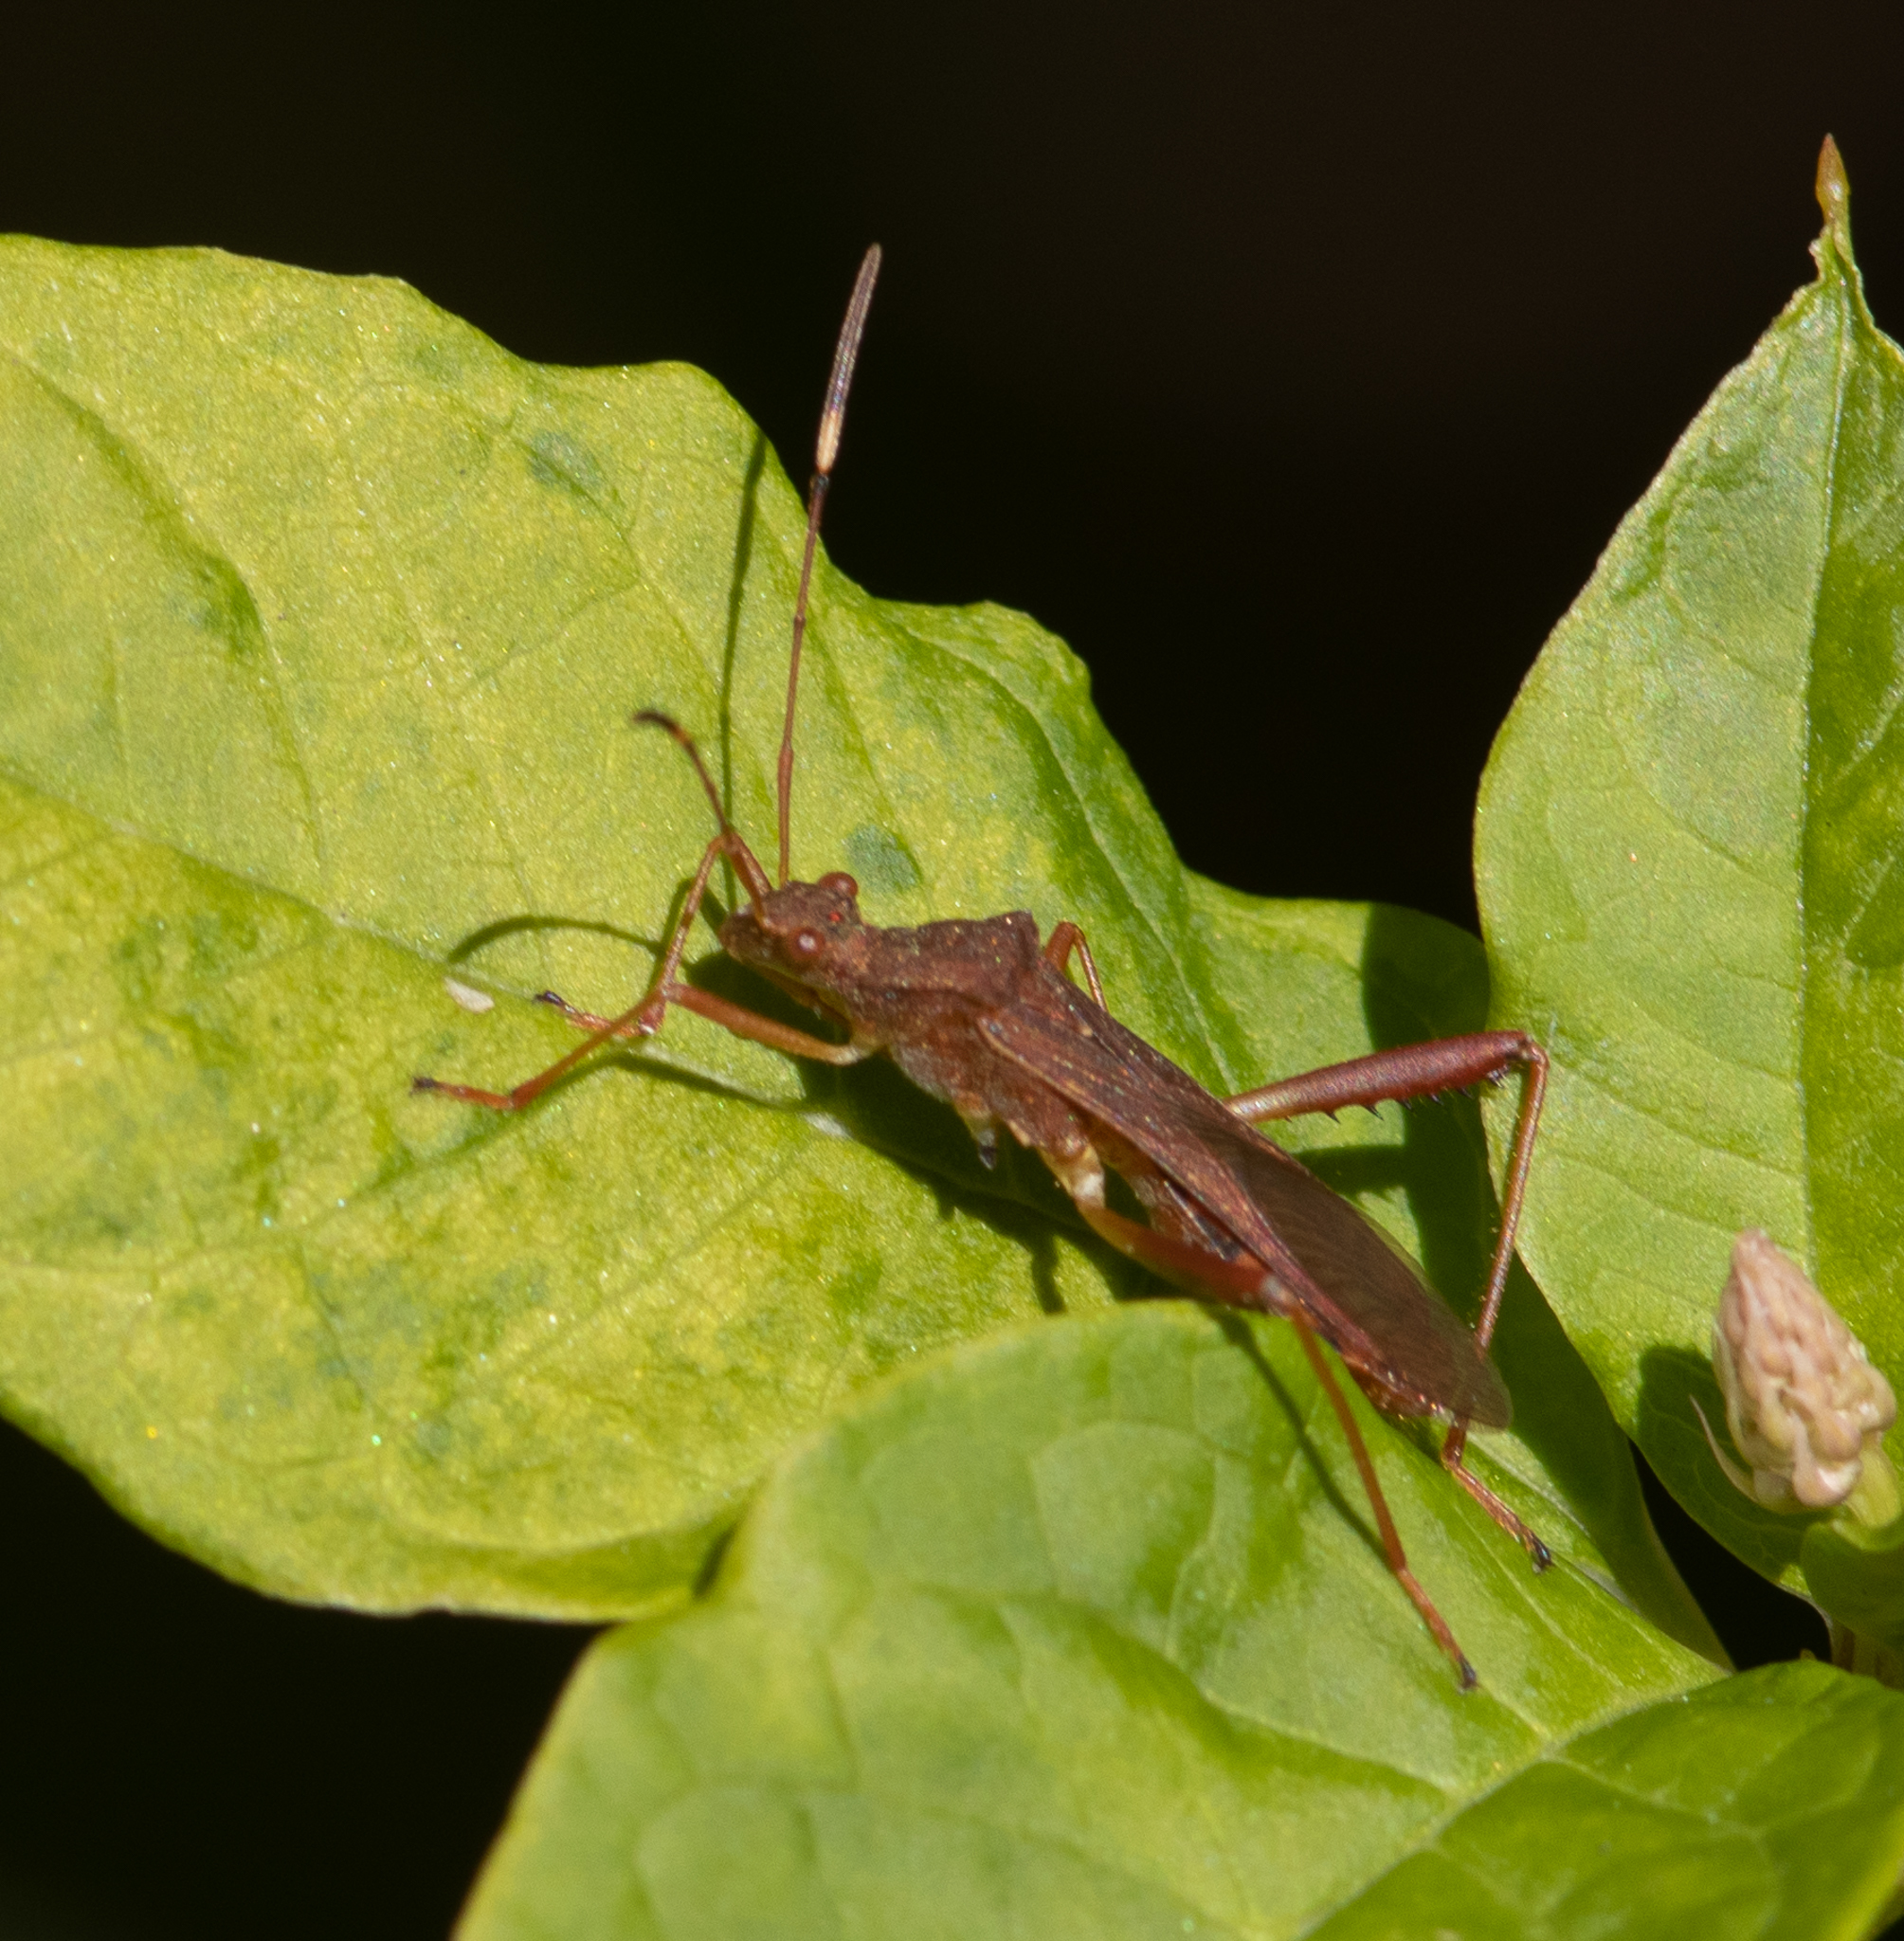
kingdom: Animalia
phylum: Arthropoda
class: Insecta
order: Hemiptera
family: Alydidae
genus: Megalotomus
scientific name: Megalotomus quinquespinosus
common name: Lupine bug
